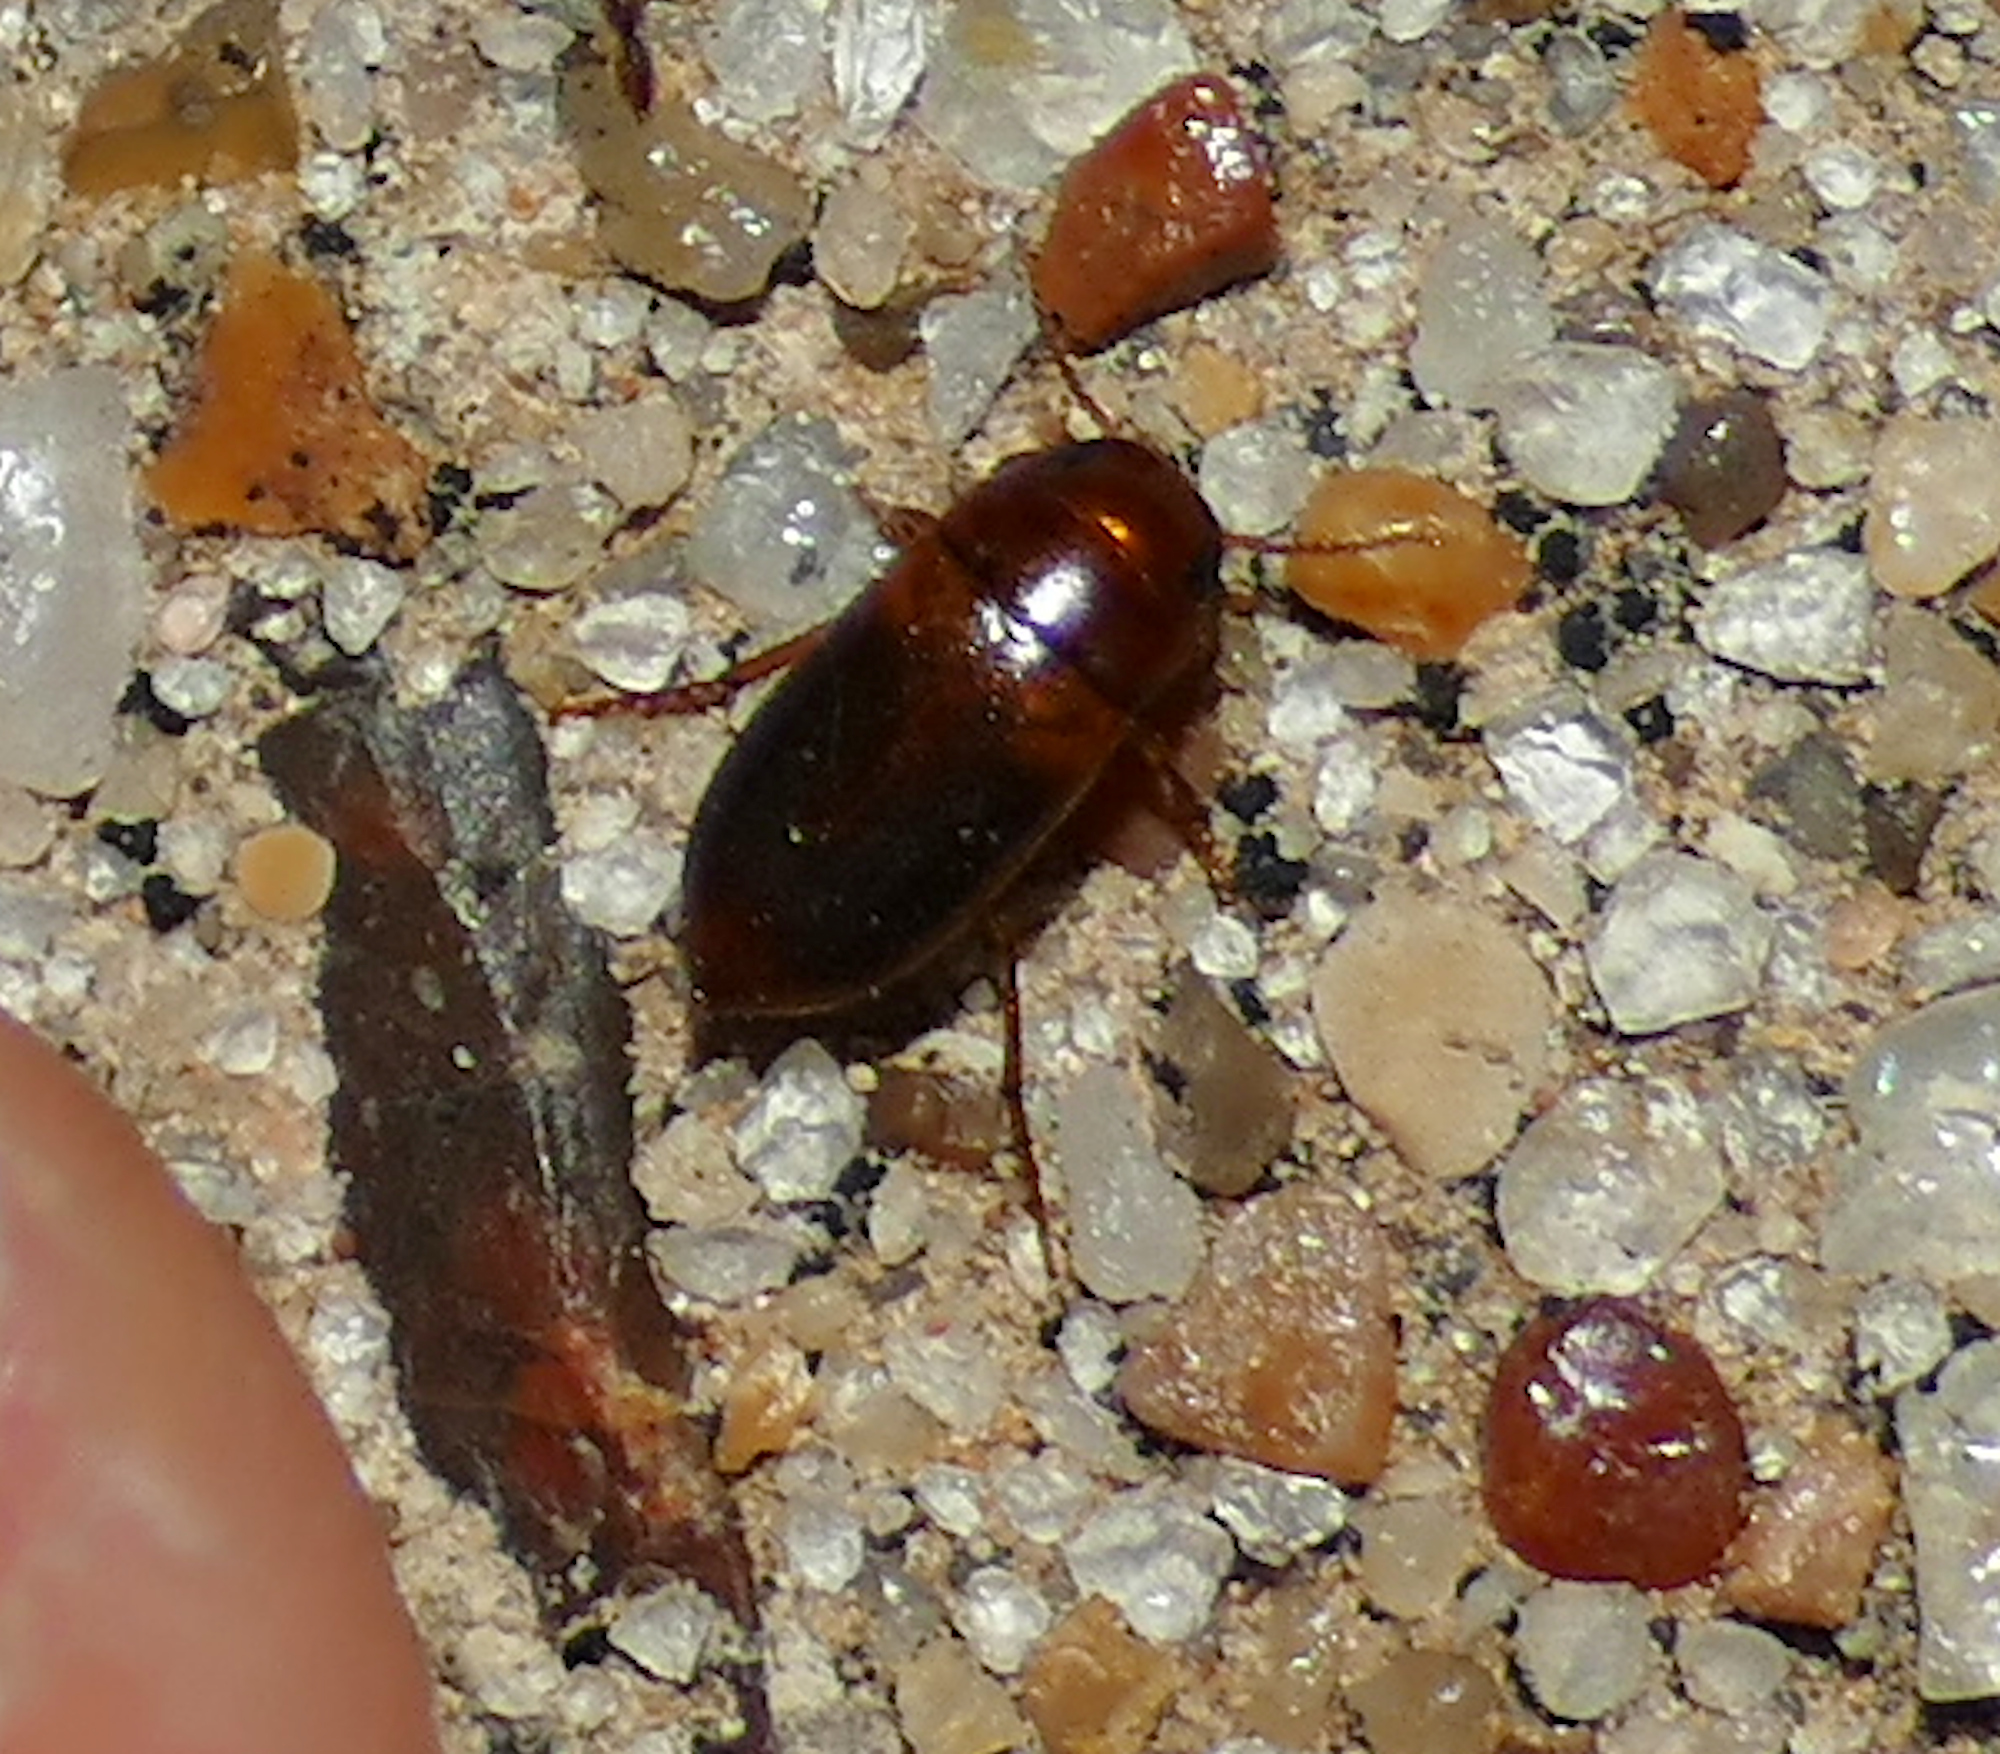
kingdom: Animalia
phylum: Arthropoda
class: Insecta
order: Coleoptera
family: Dytiscidae
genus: Celina
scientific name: Celina hubbelli
